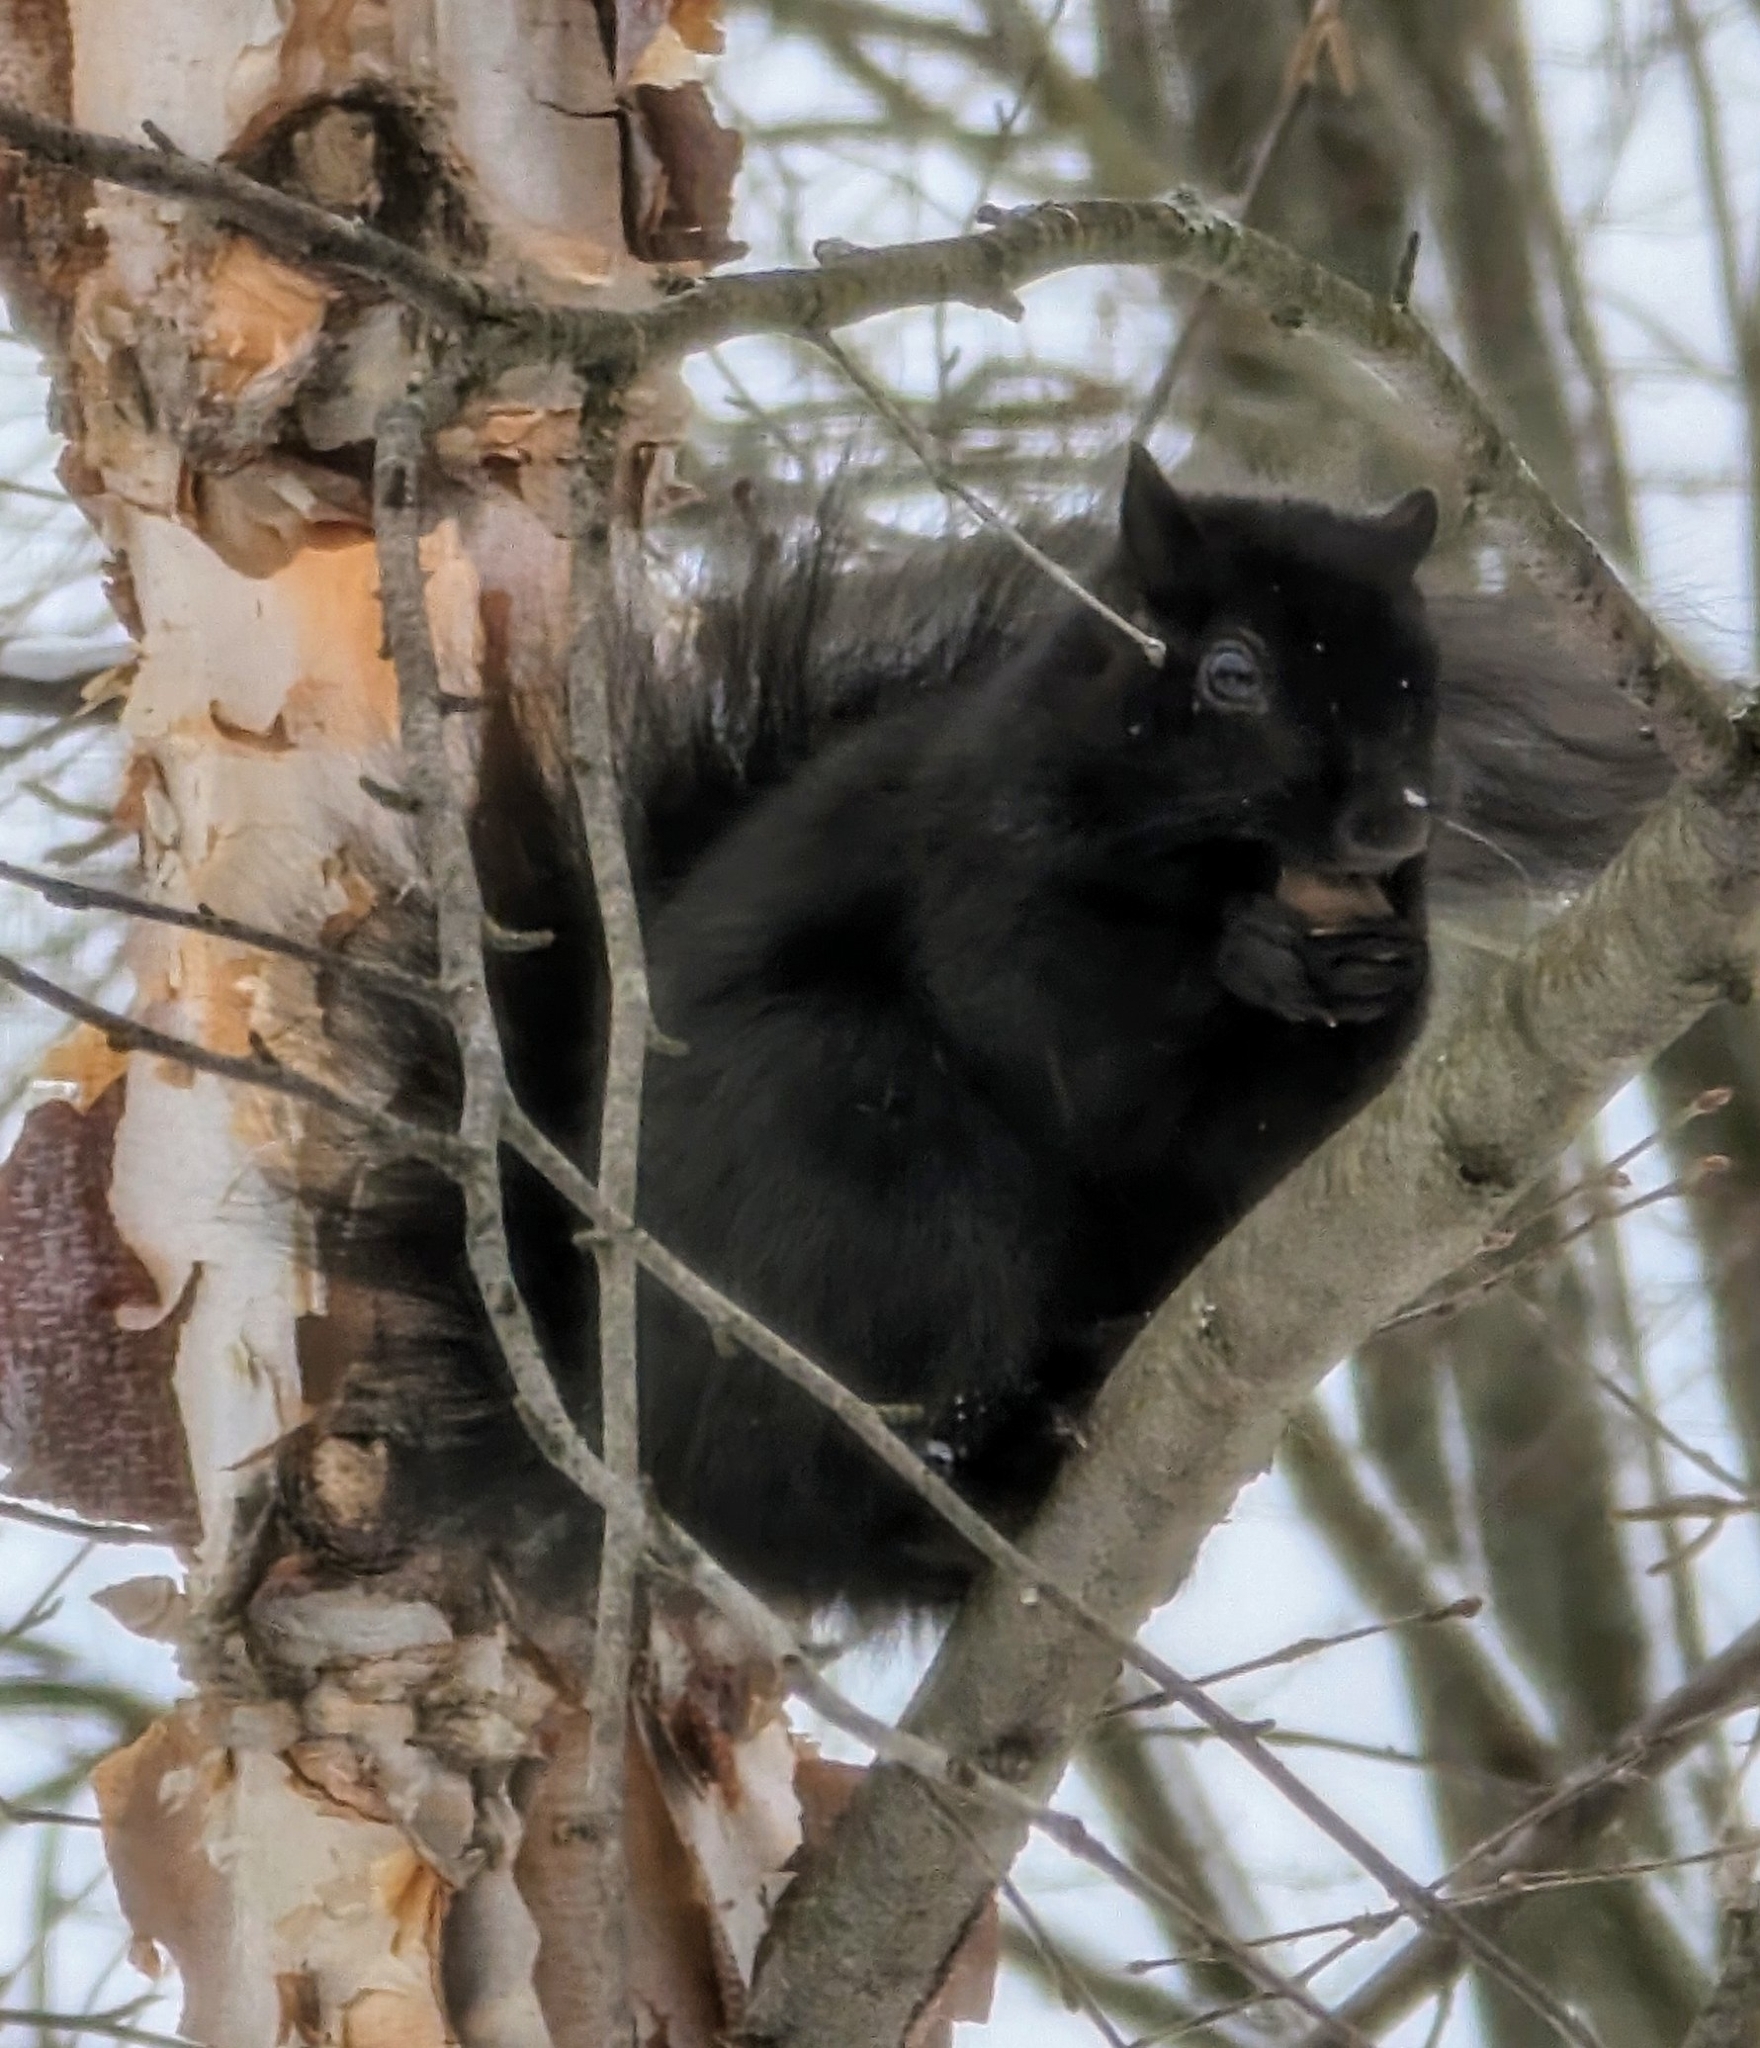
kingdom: Animalia
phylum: Chordata
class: Mammalia
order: Rodentia
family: Sciuridae
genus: Sciurus
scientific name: Sciurus carolinensis
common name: Eastern gray squirrel
